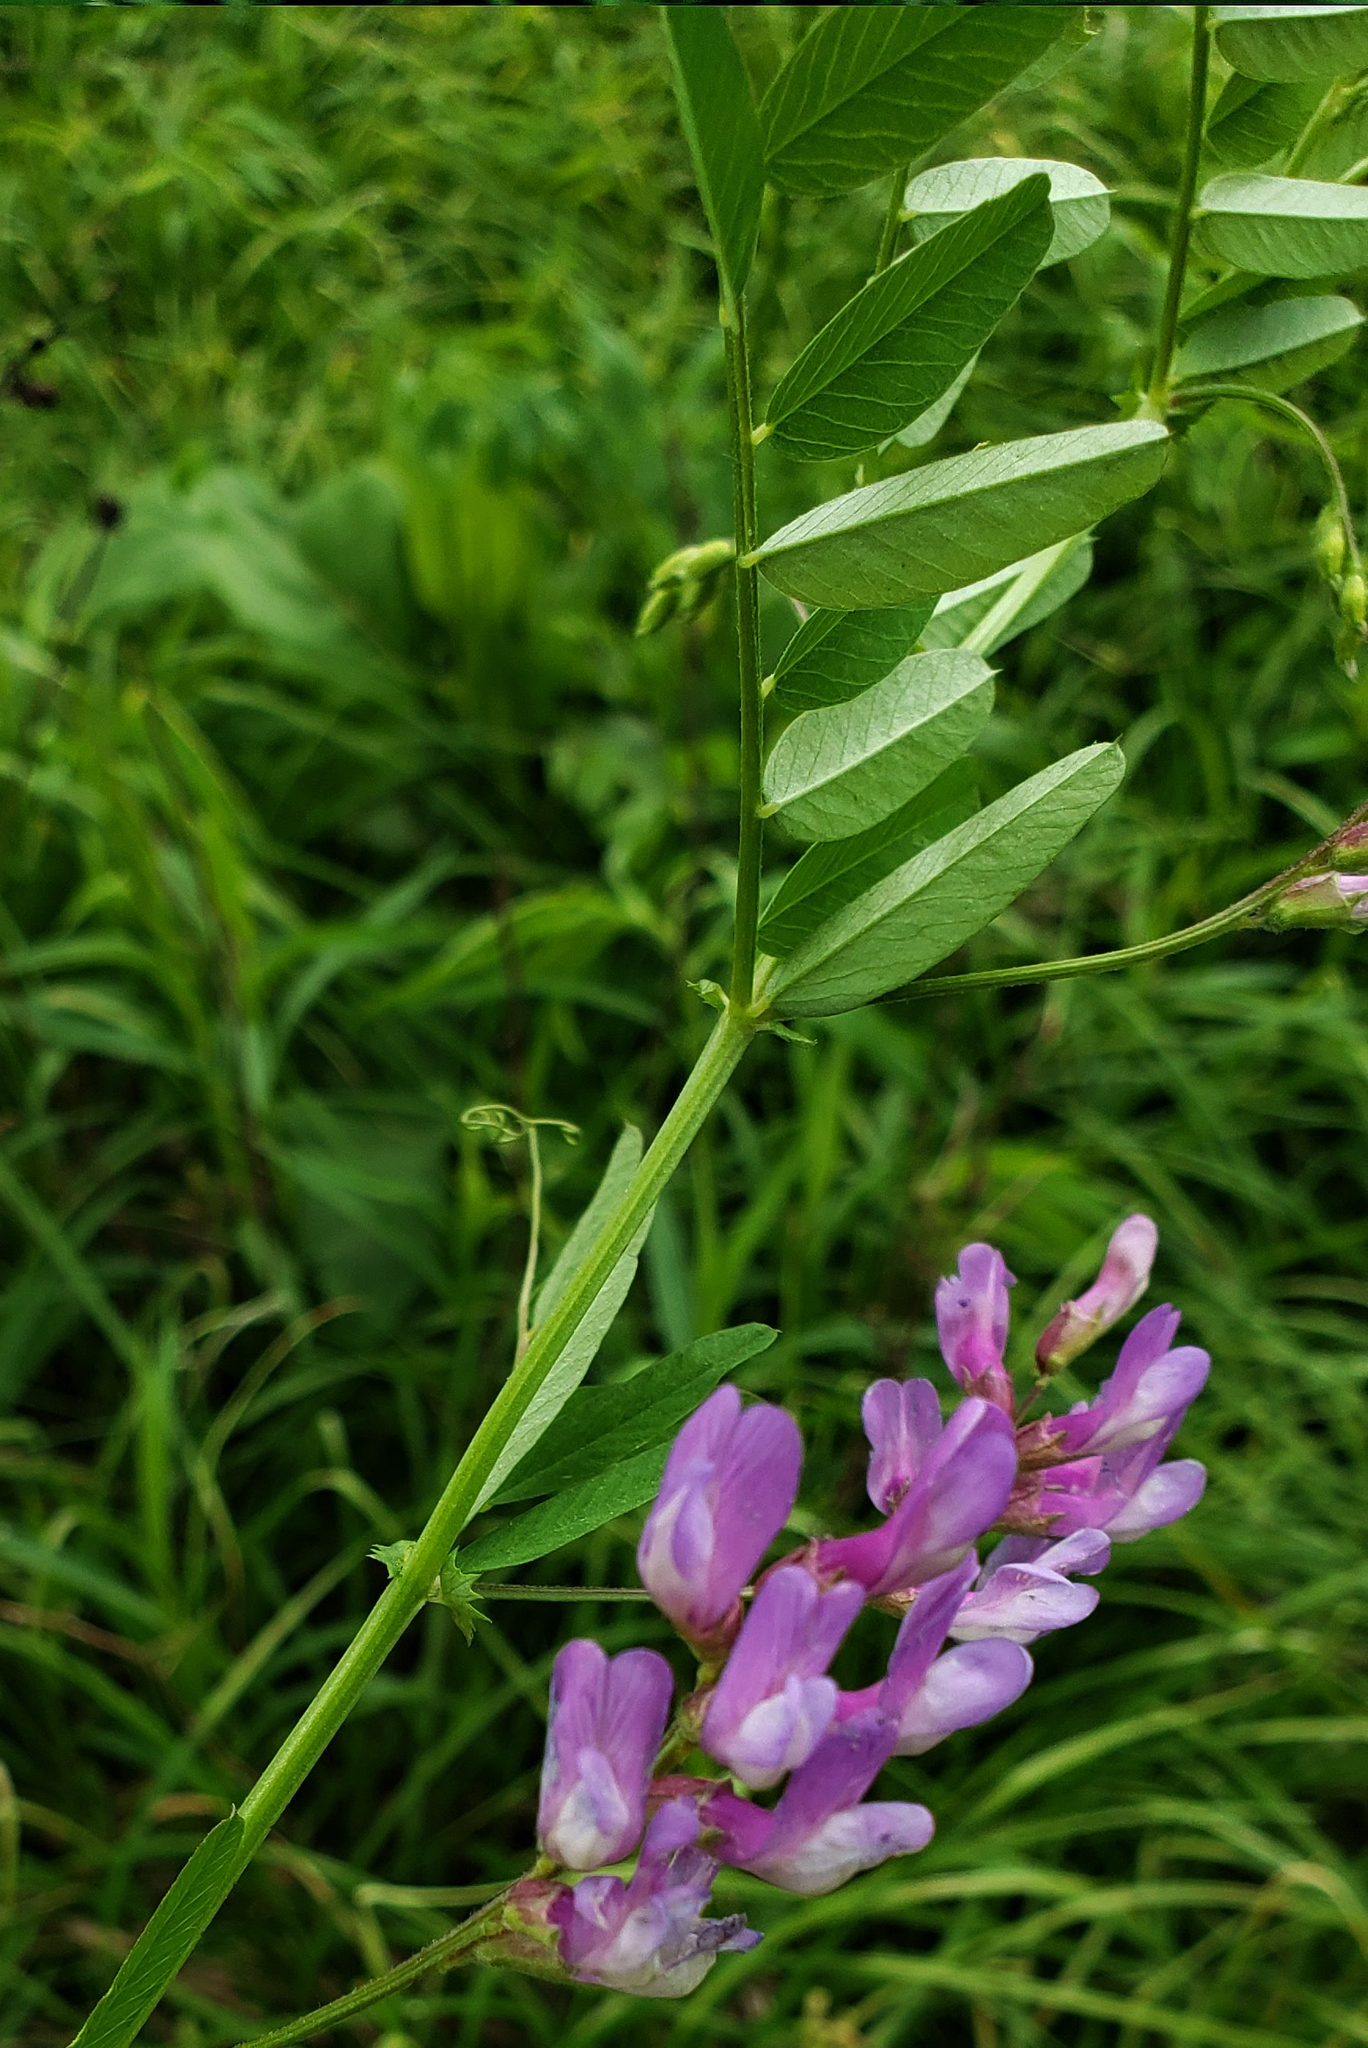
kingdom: Plantae
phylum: Tracheophyta
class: Magnoliopsida
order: Fabales
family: Fabaceae
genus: Vicia
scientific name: Vicia americana
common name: American vetch
